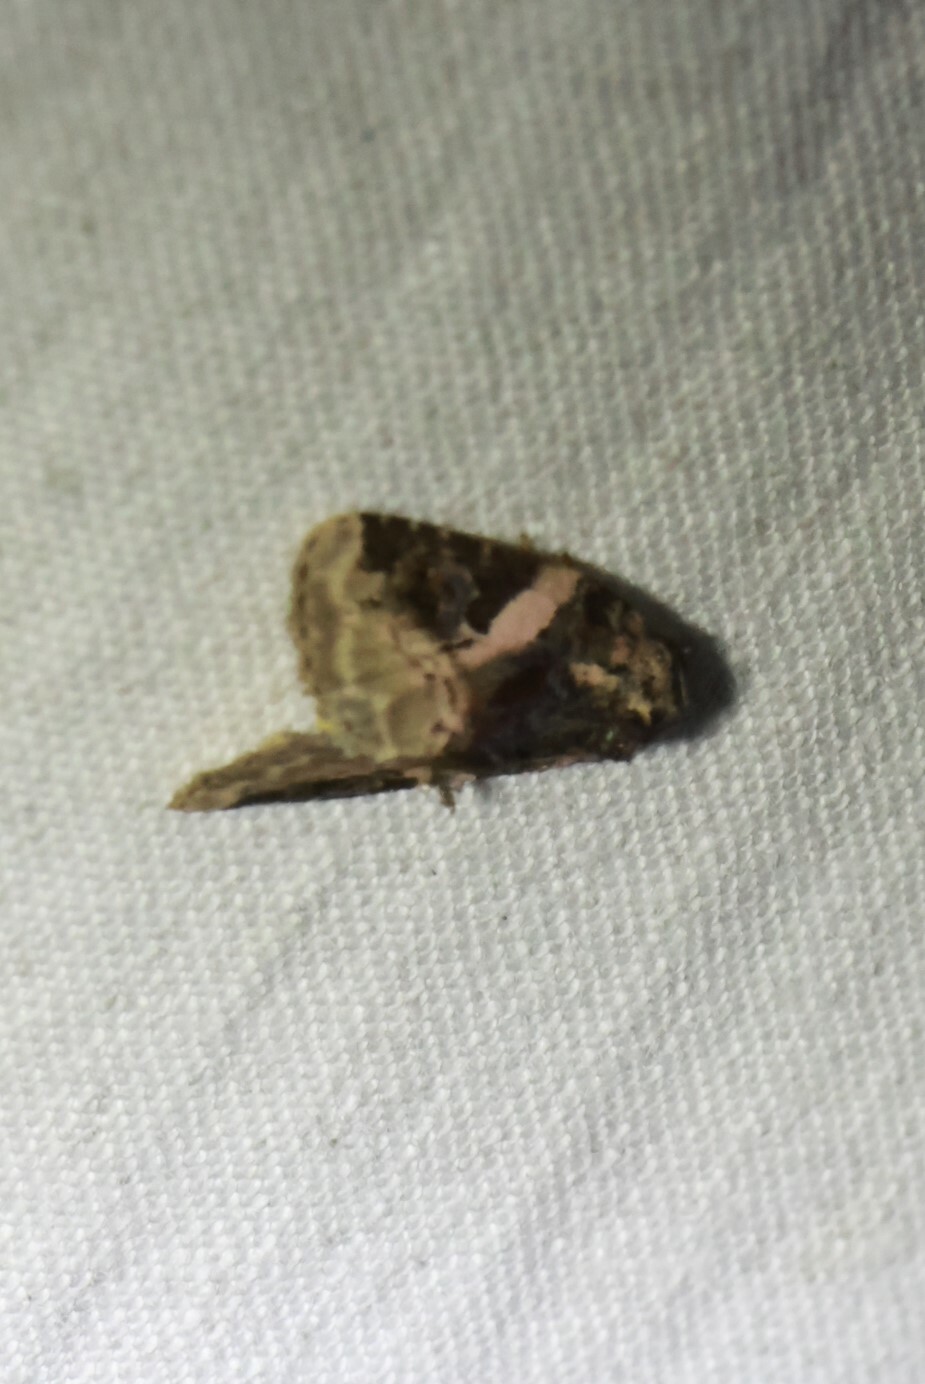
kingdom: Animalia
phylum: Arthropoda
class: Insecta
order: Lepidoptera
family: Noctuidae
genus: Pseudeustrotia
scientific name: Pseudeustrotia carneola
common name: Pink-barred lithacodia moth
